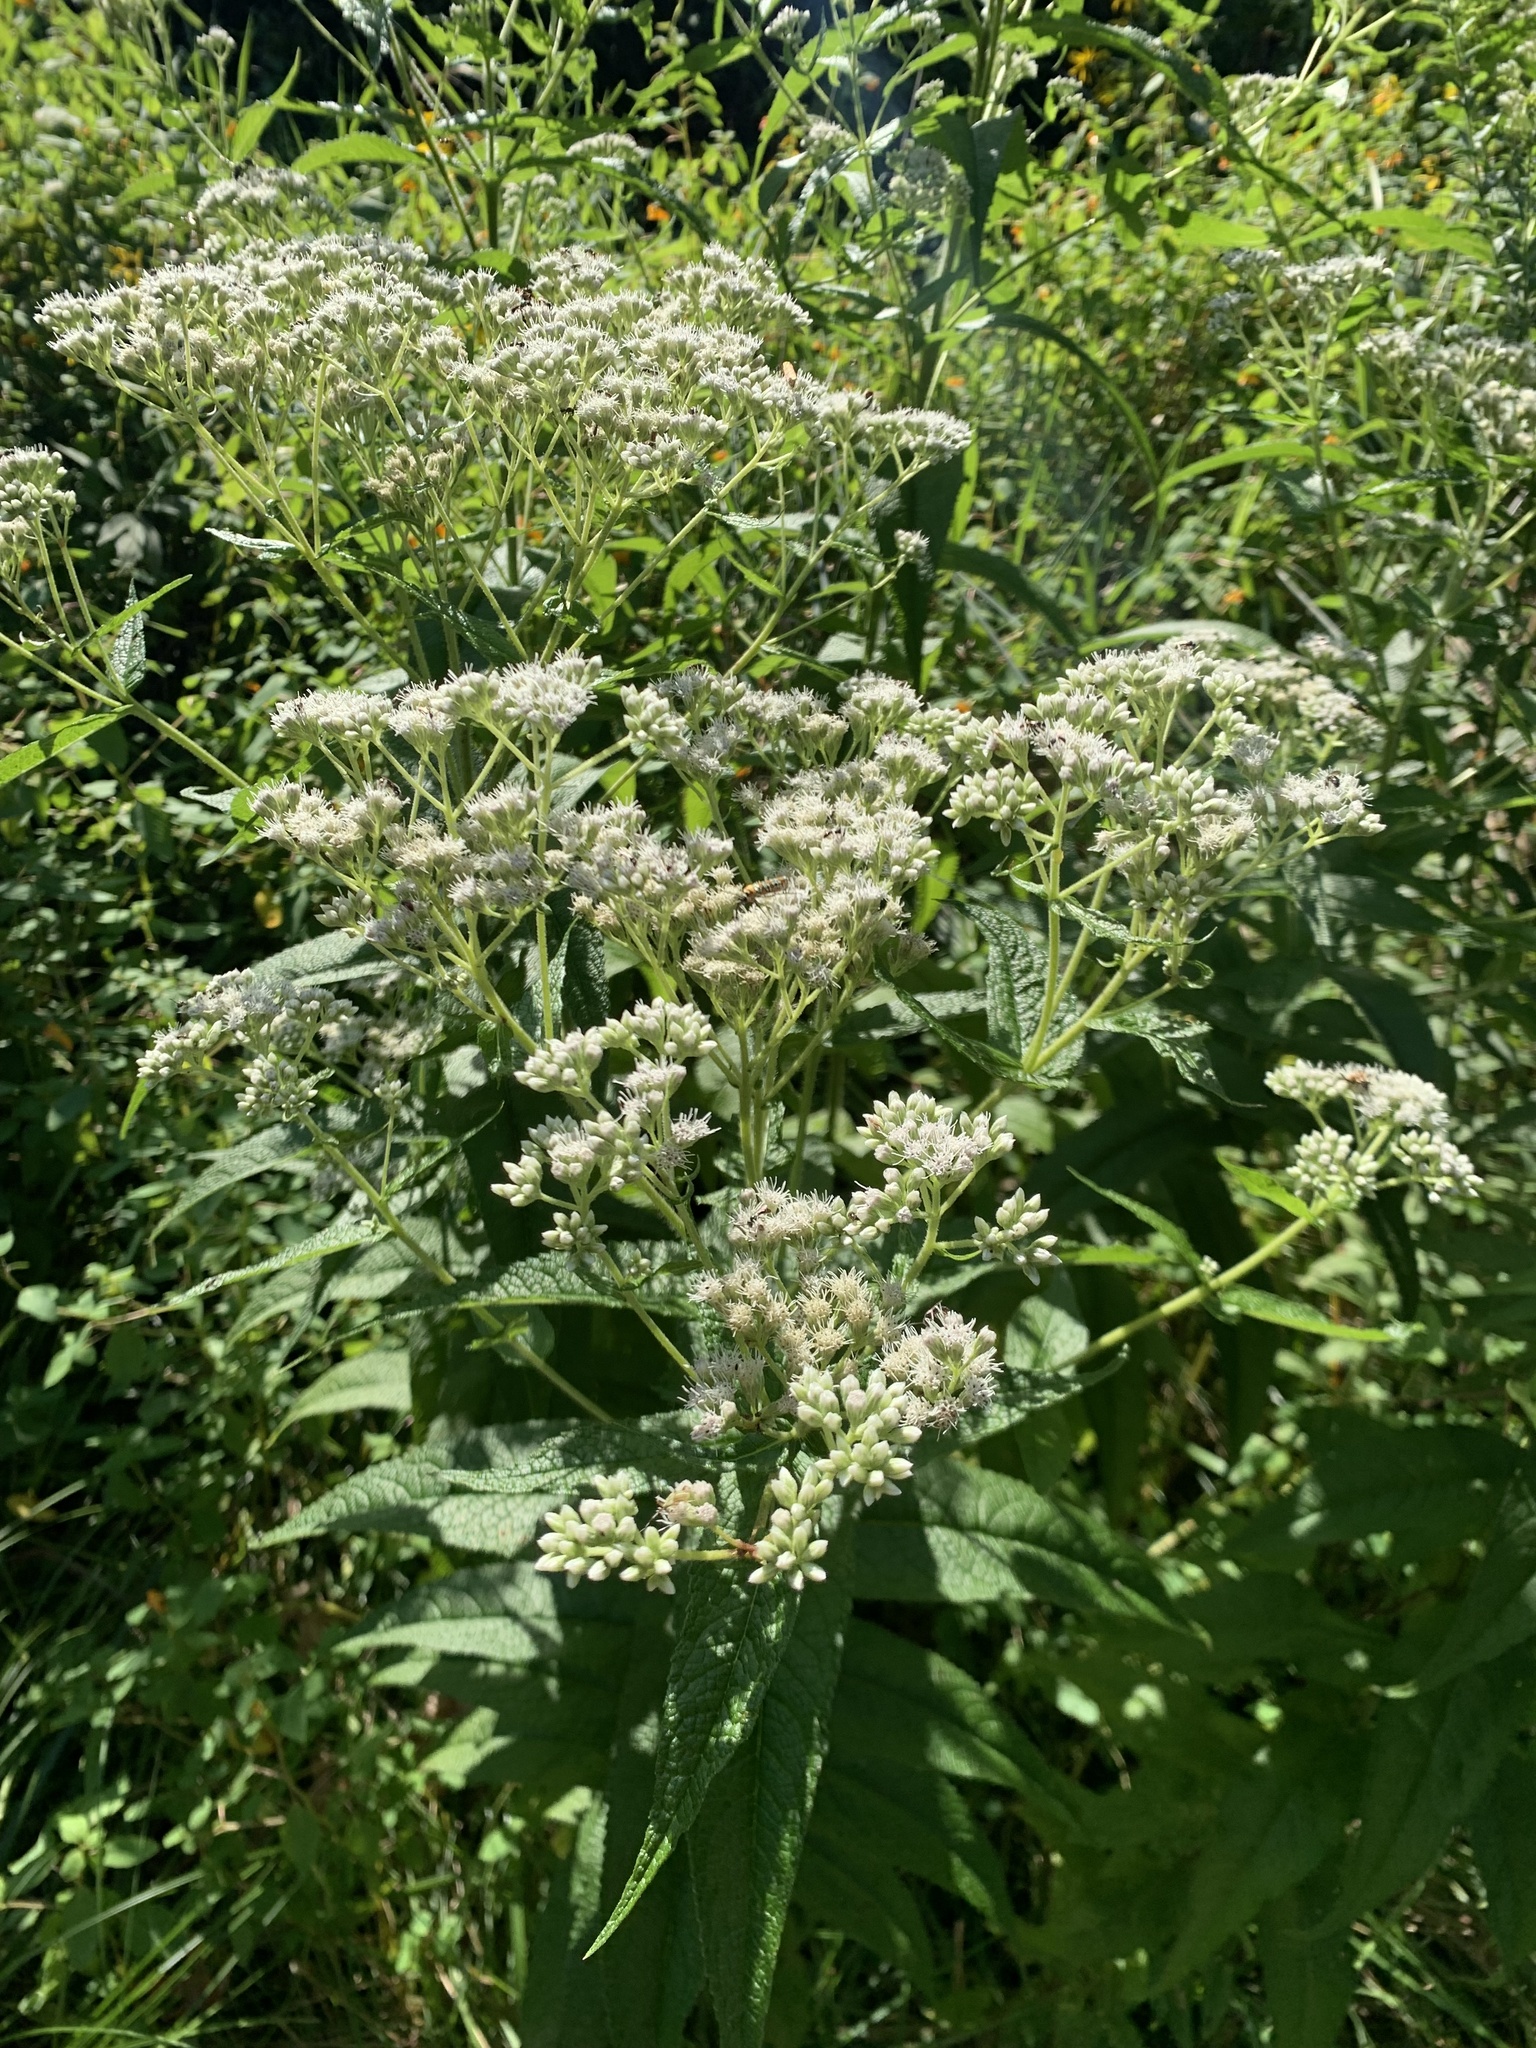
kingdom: Plantae
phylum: Tracheophyta
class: Magnoliopsida
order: Asterales
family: Asteraceae
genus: Eupatorium
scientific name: Eupatorium perfoliatum
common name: Boneset
